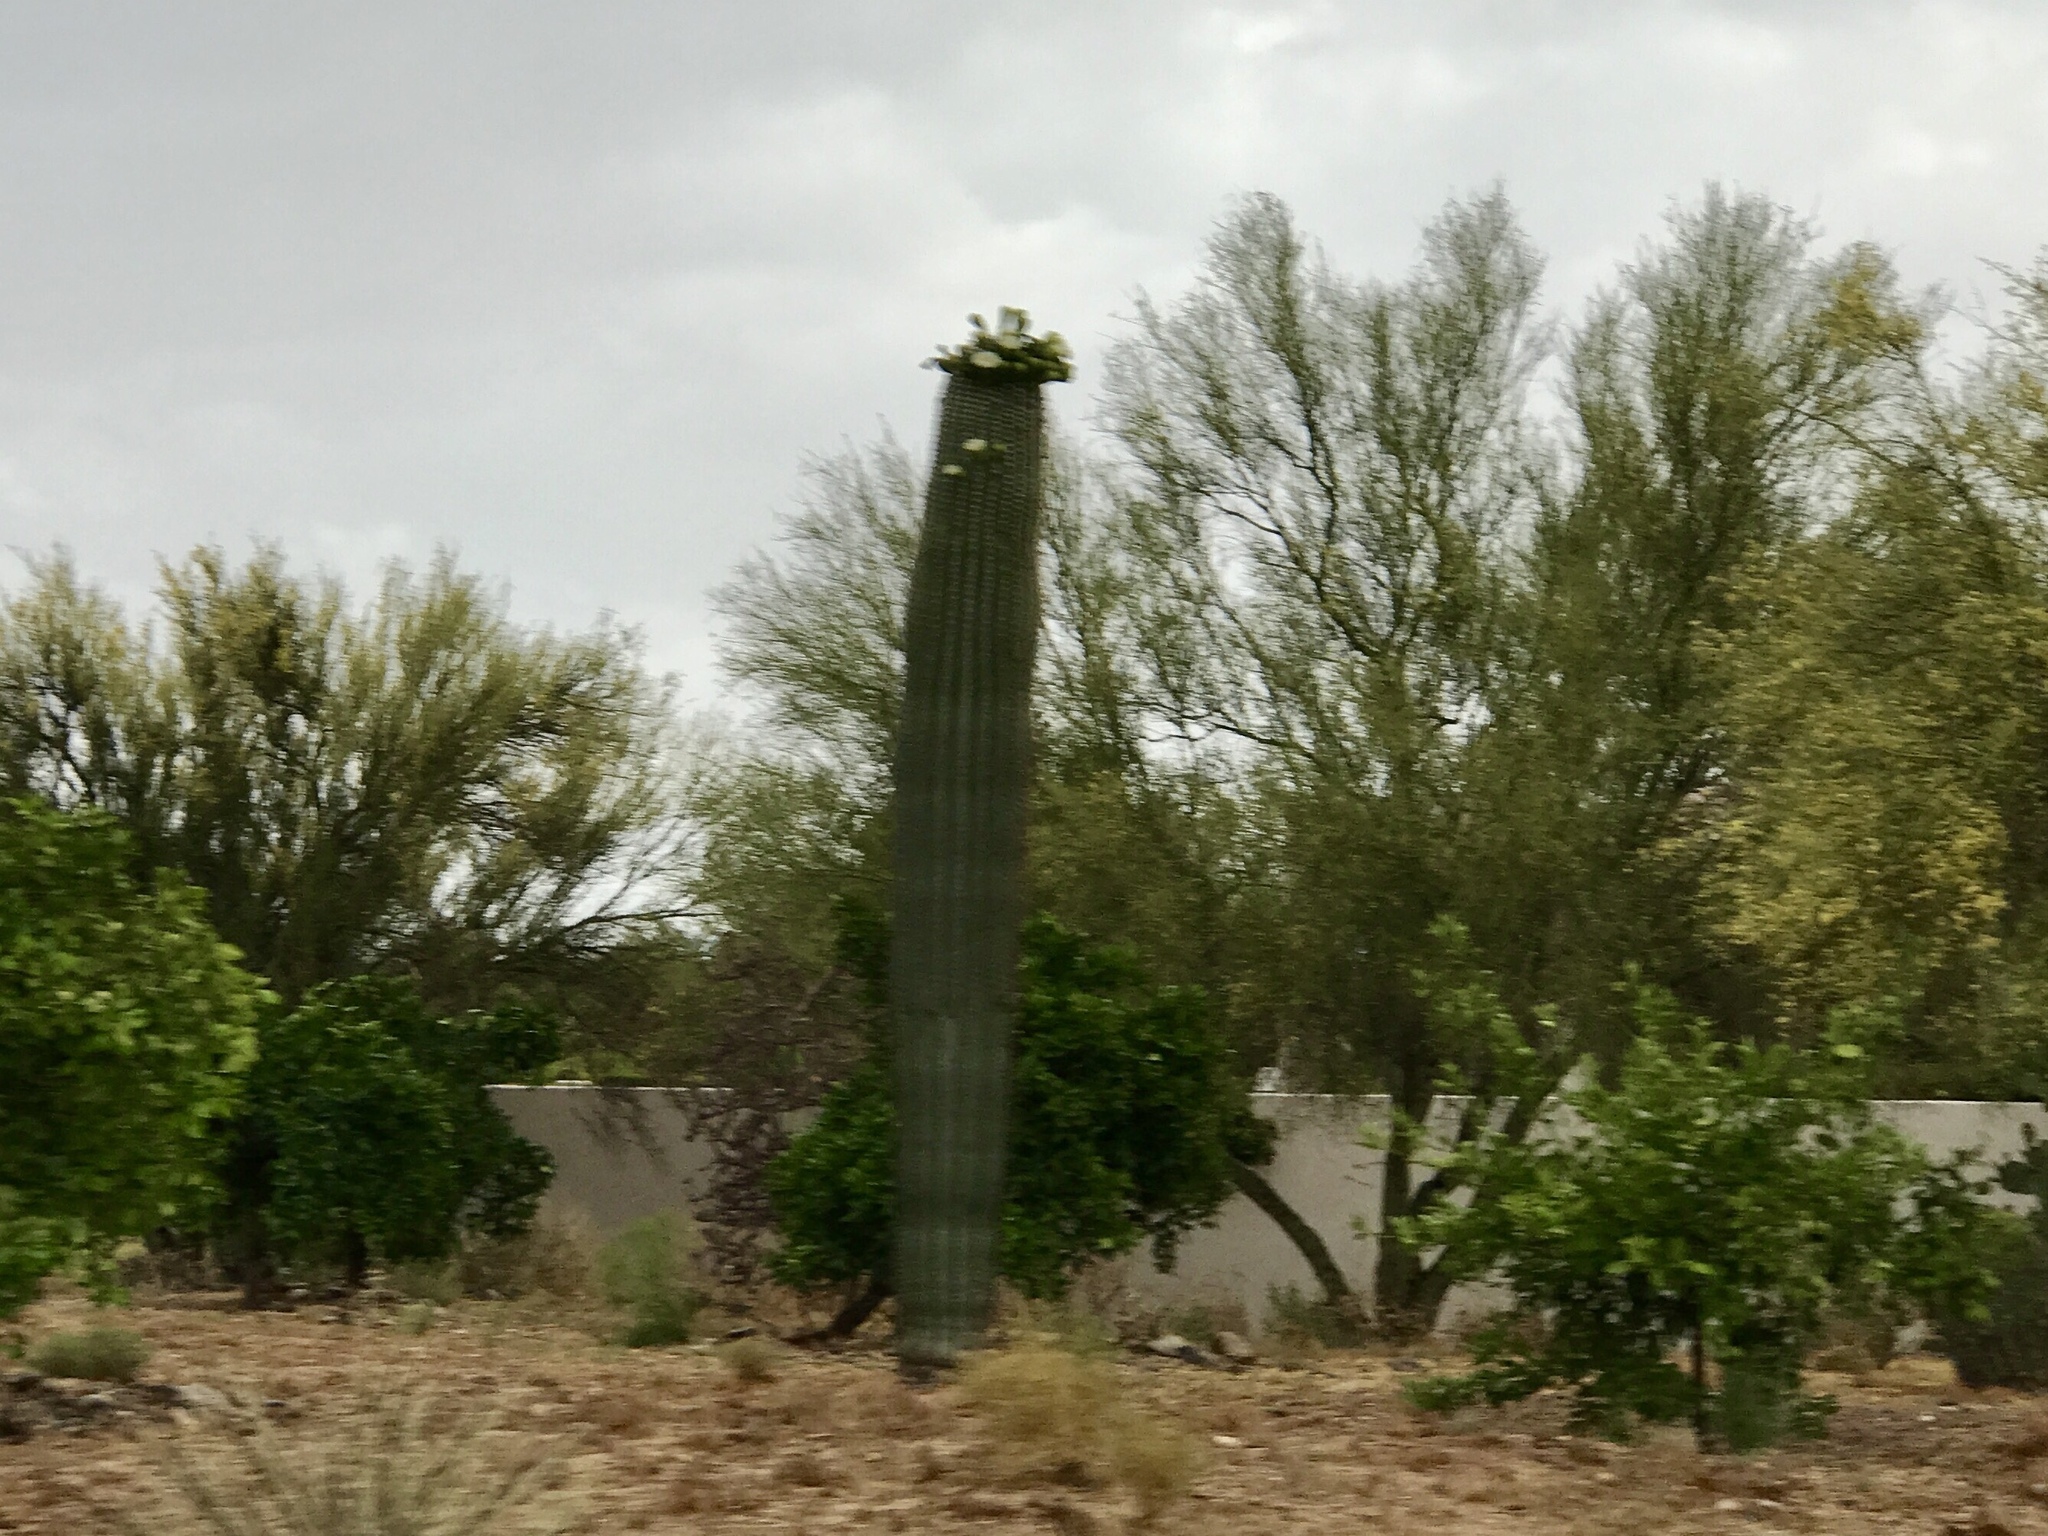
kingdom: Plantae
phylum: Tracheophyta
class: Magnoliopsida
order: Caryophyllales
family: Cactaceae
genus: Carnegiea
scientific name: Carnegiea gigantea
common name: Saguaro
